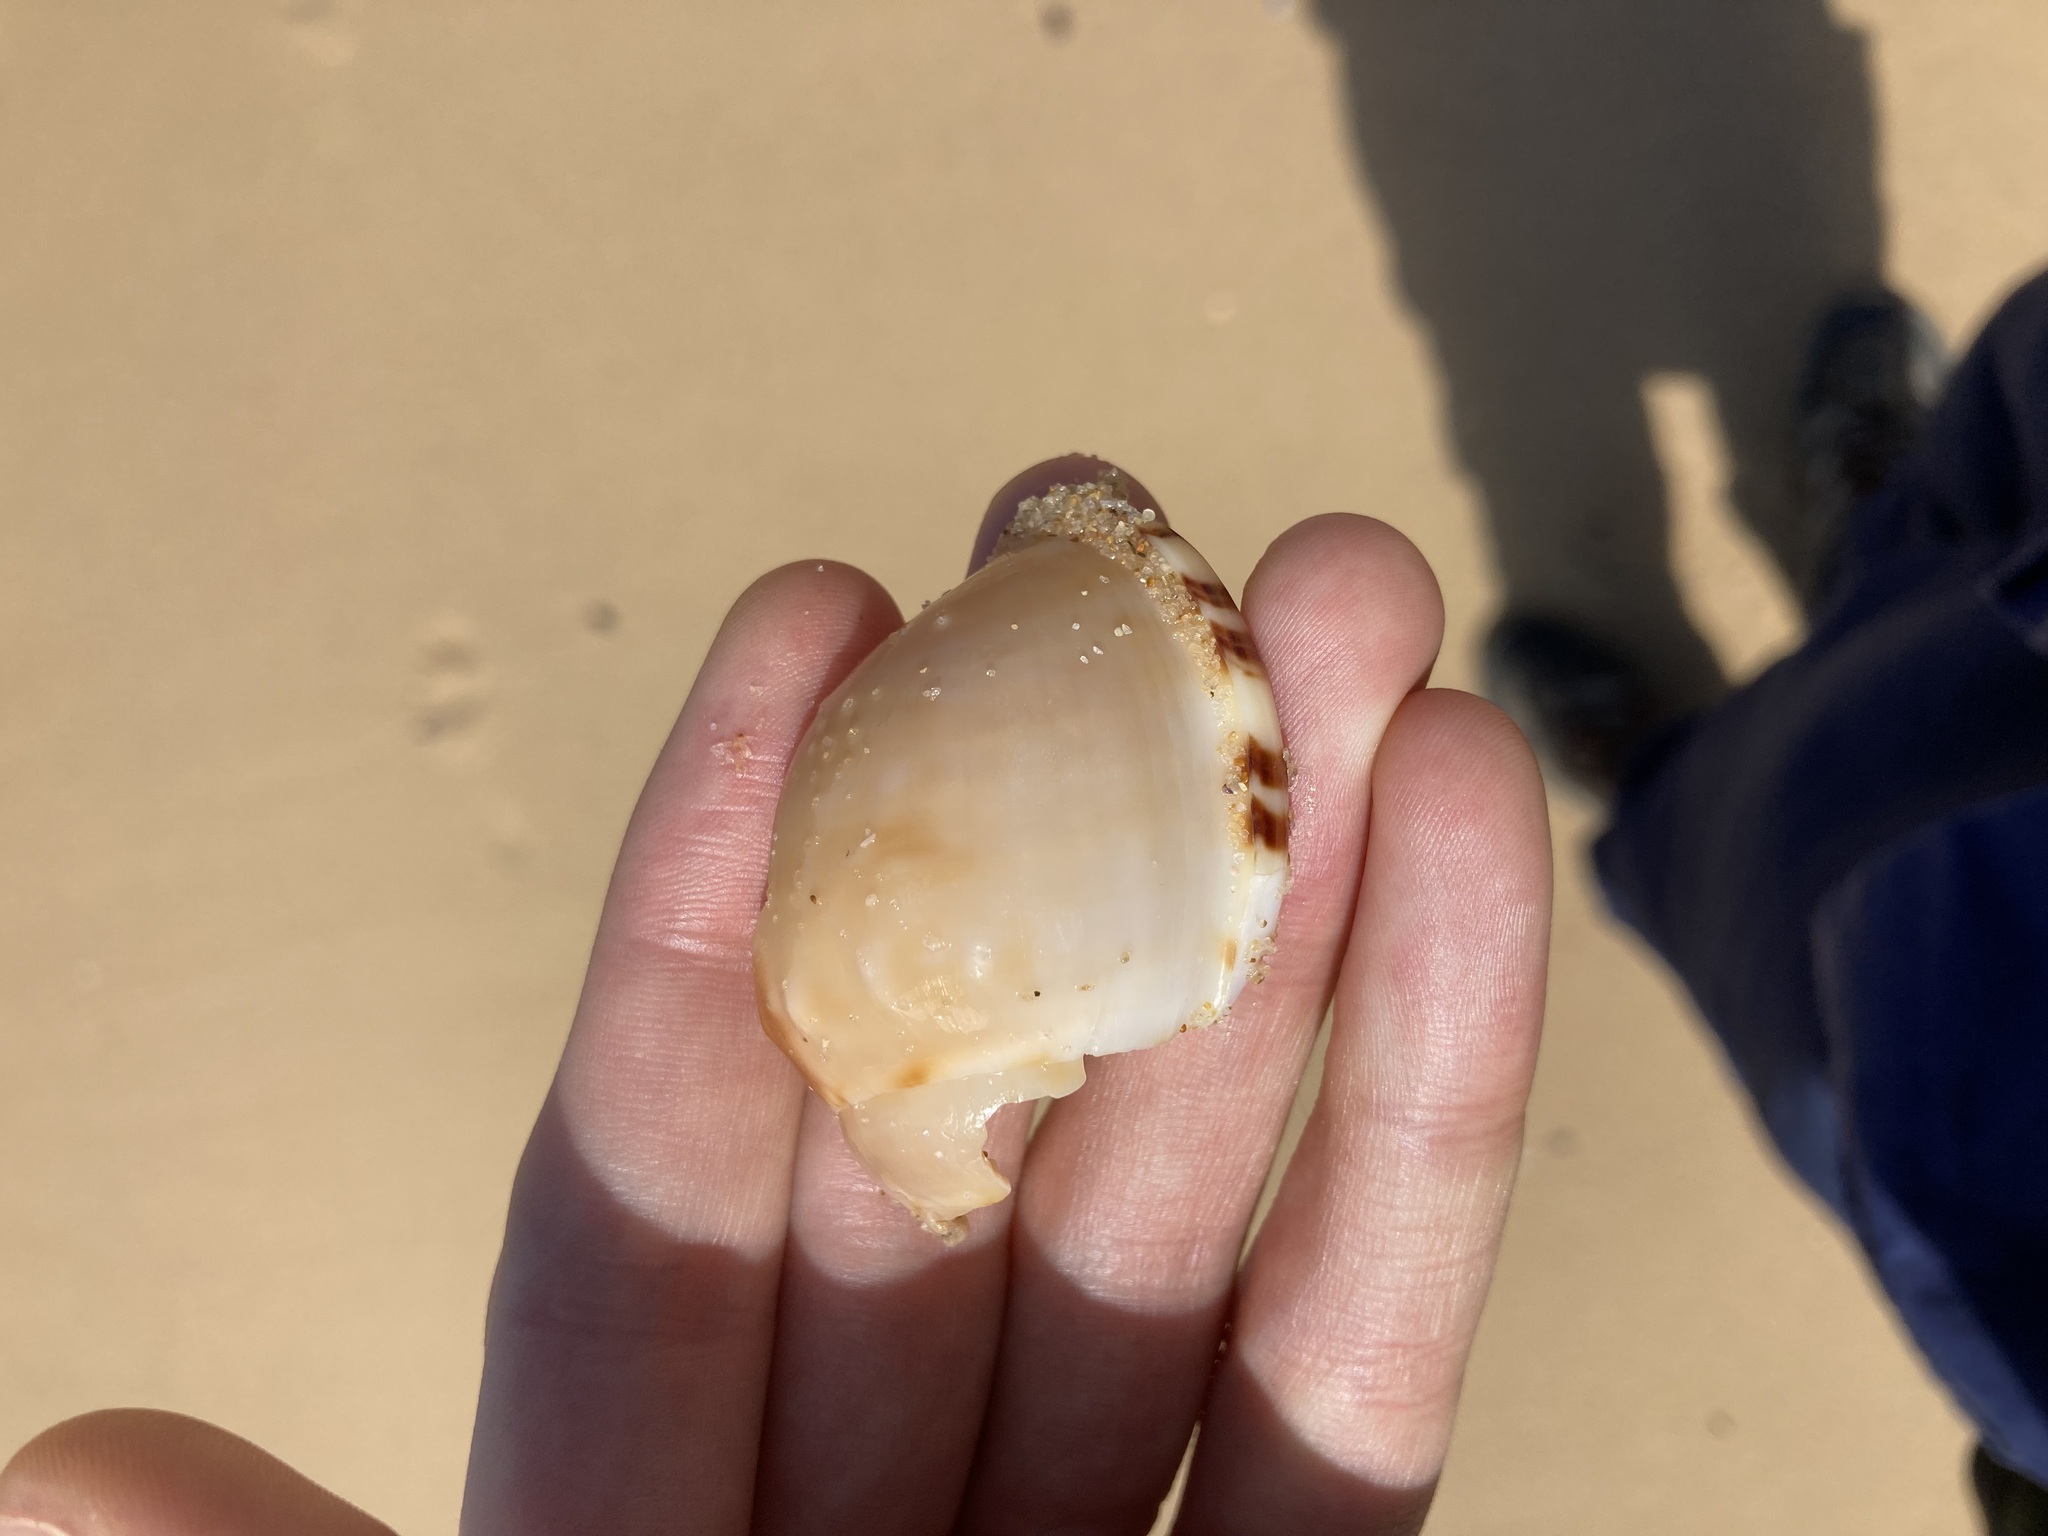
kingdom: Animalia
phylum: Mollusca
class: Gastropoda
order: Littorinimorpha
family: Cassidae
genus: Semicassis
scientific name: Semicassis labiata
